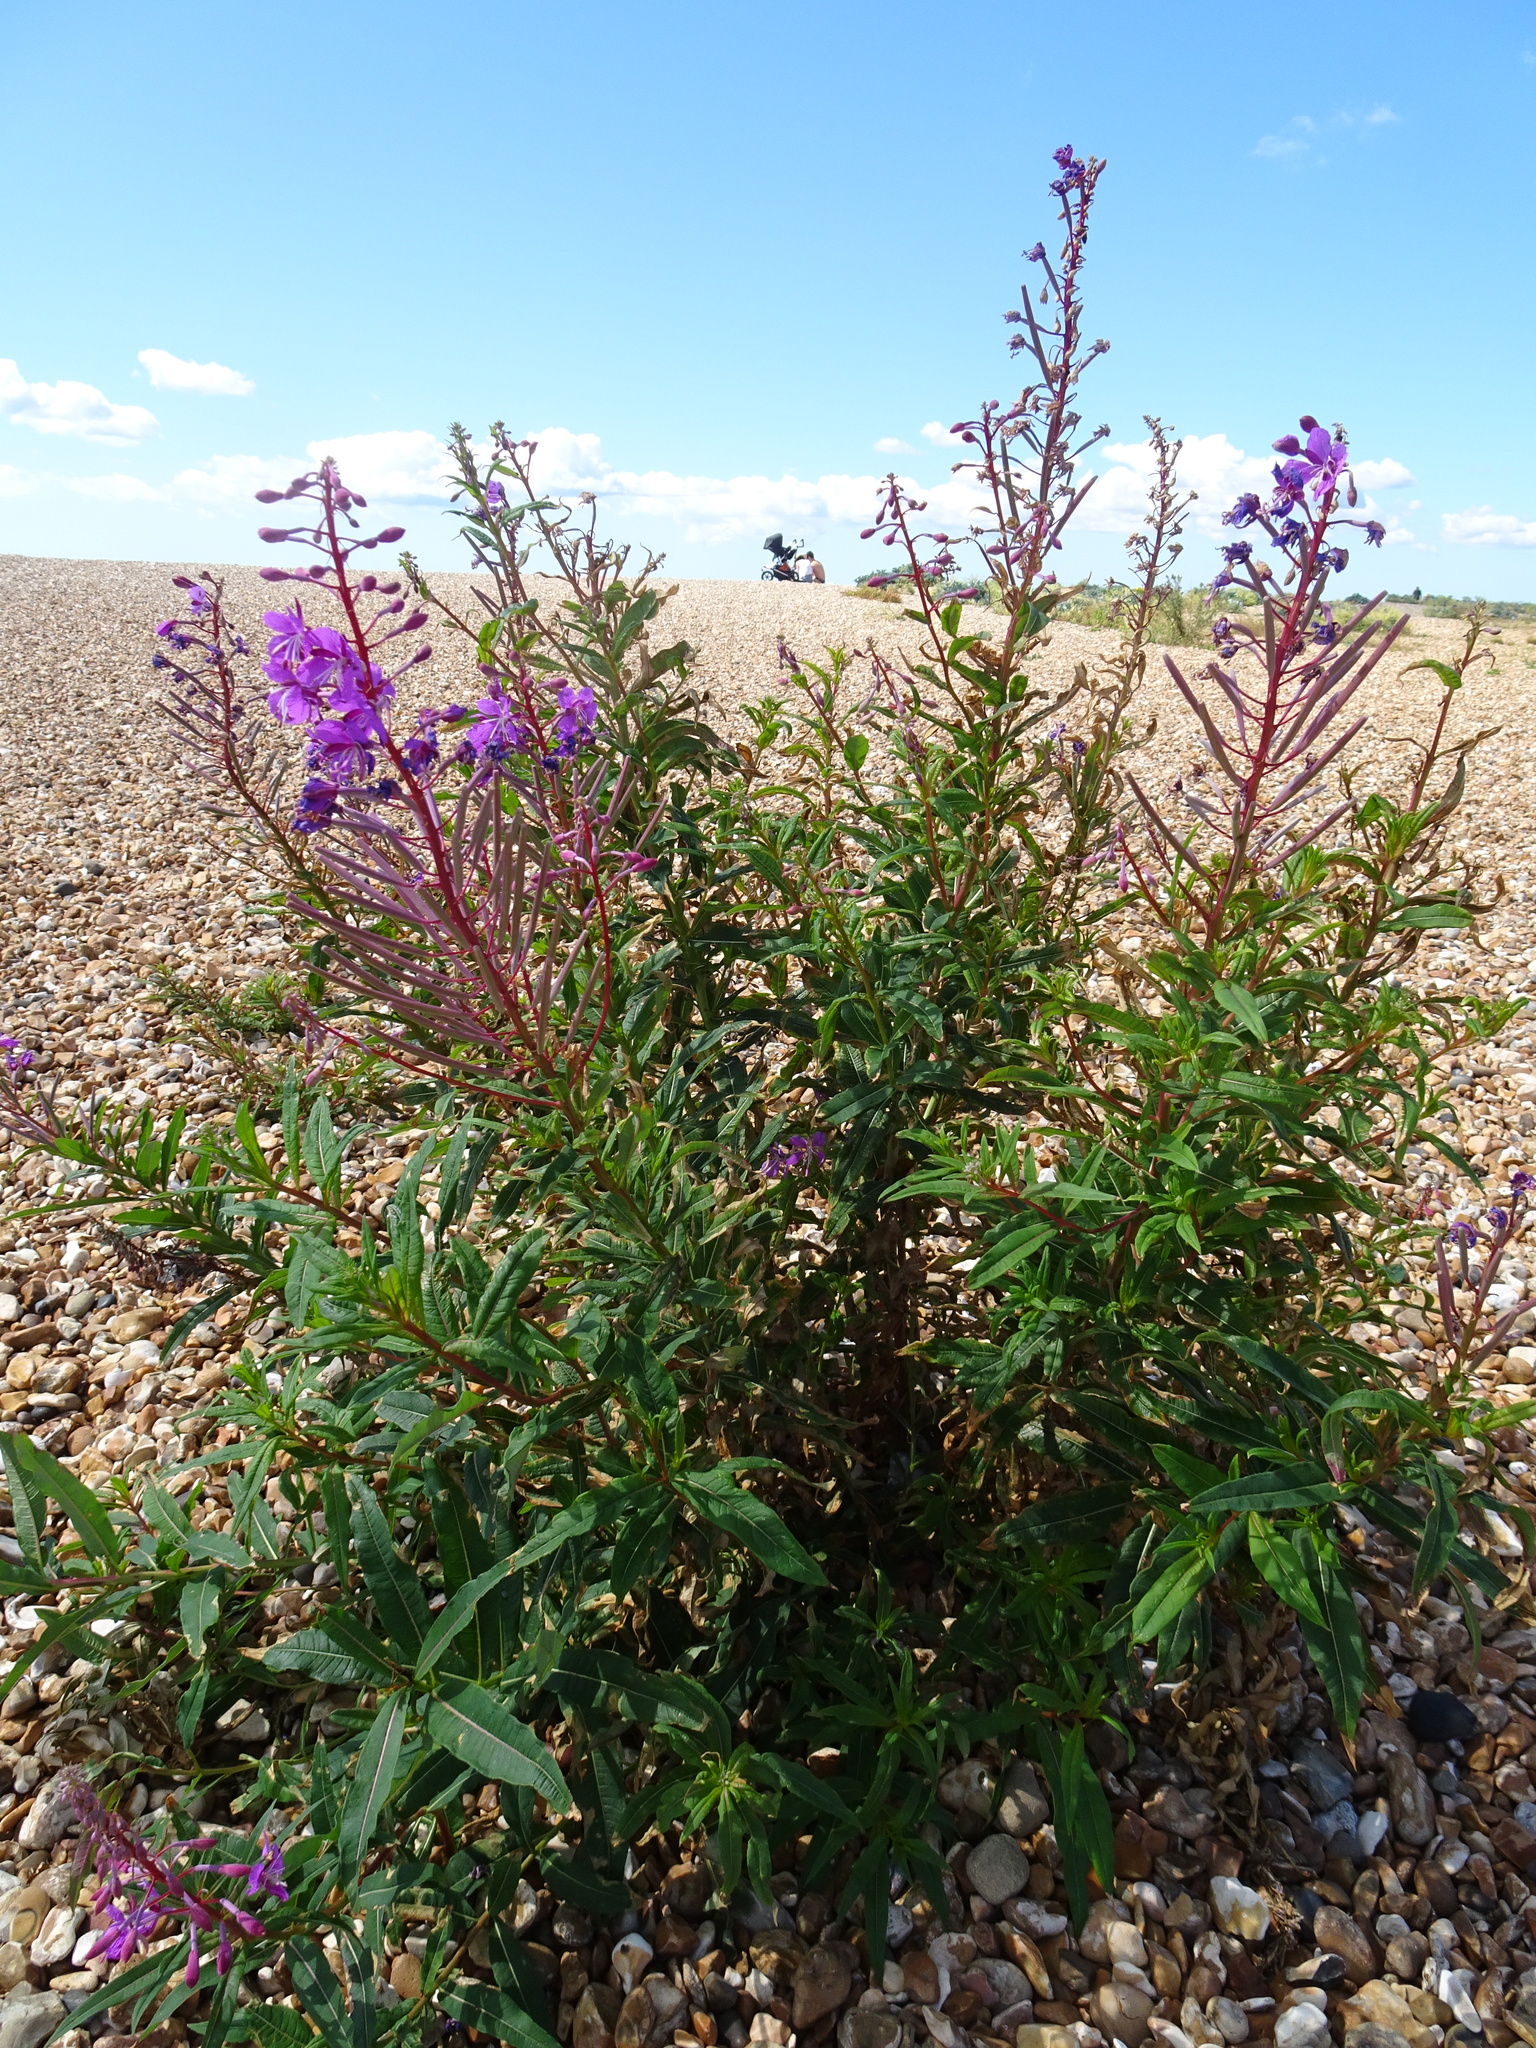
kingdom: Plantae
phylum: Tracheophyta
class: Magnoliopsida
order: Myrtales
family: Onagraceae
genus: Chamaenerion
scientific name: Chamaenerion angustifolium
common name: Fireweed
